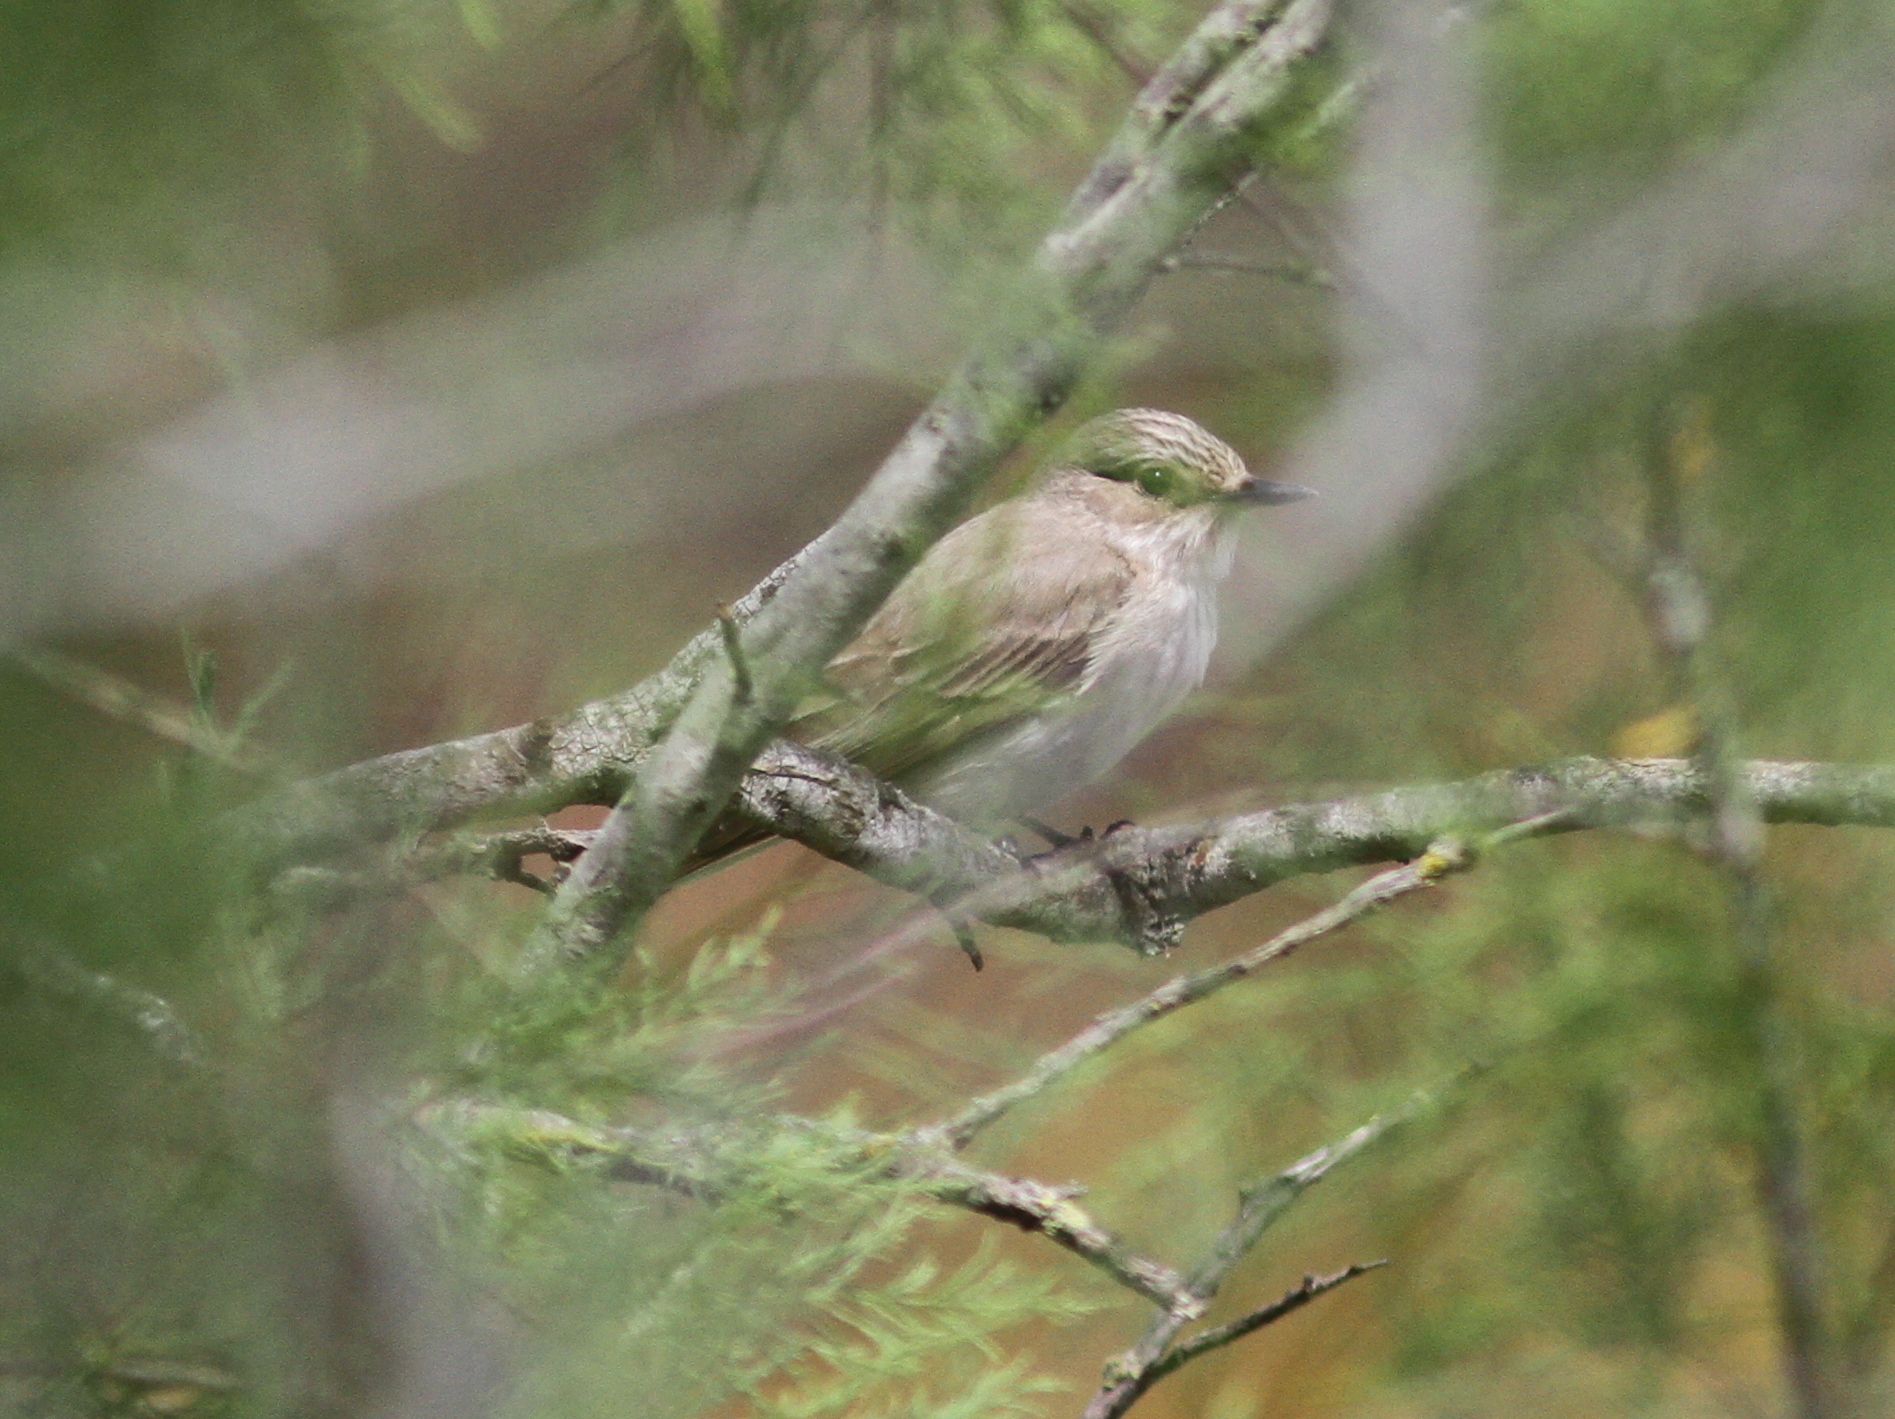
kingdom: Animalia
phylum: Chordata
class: Aves
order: Passeriformes
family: Muscicapidae
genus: Muscicapa
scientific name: Muscicapa striata
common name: Spotted flycatcher
